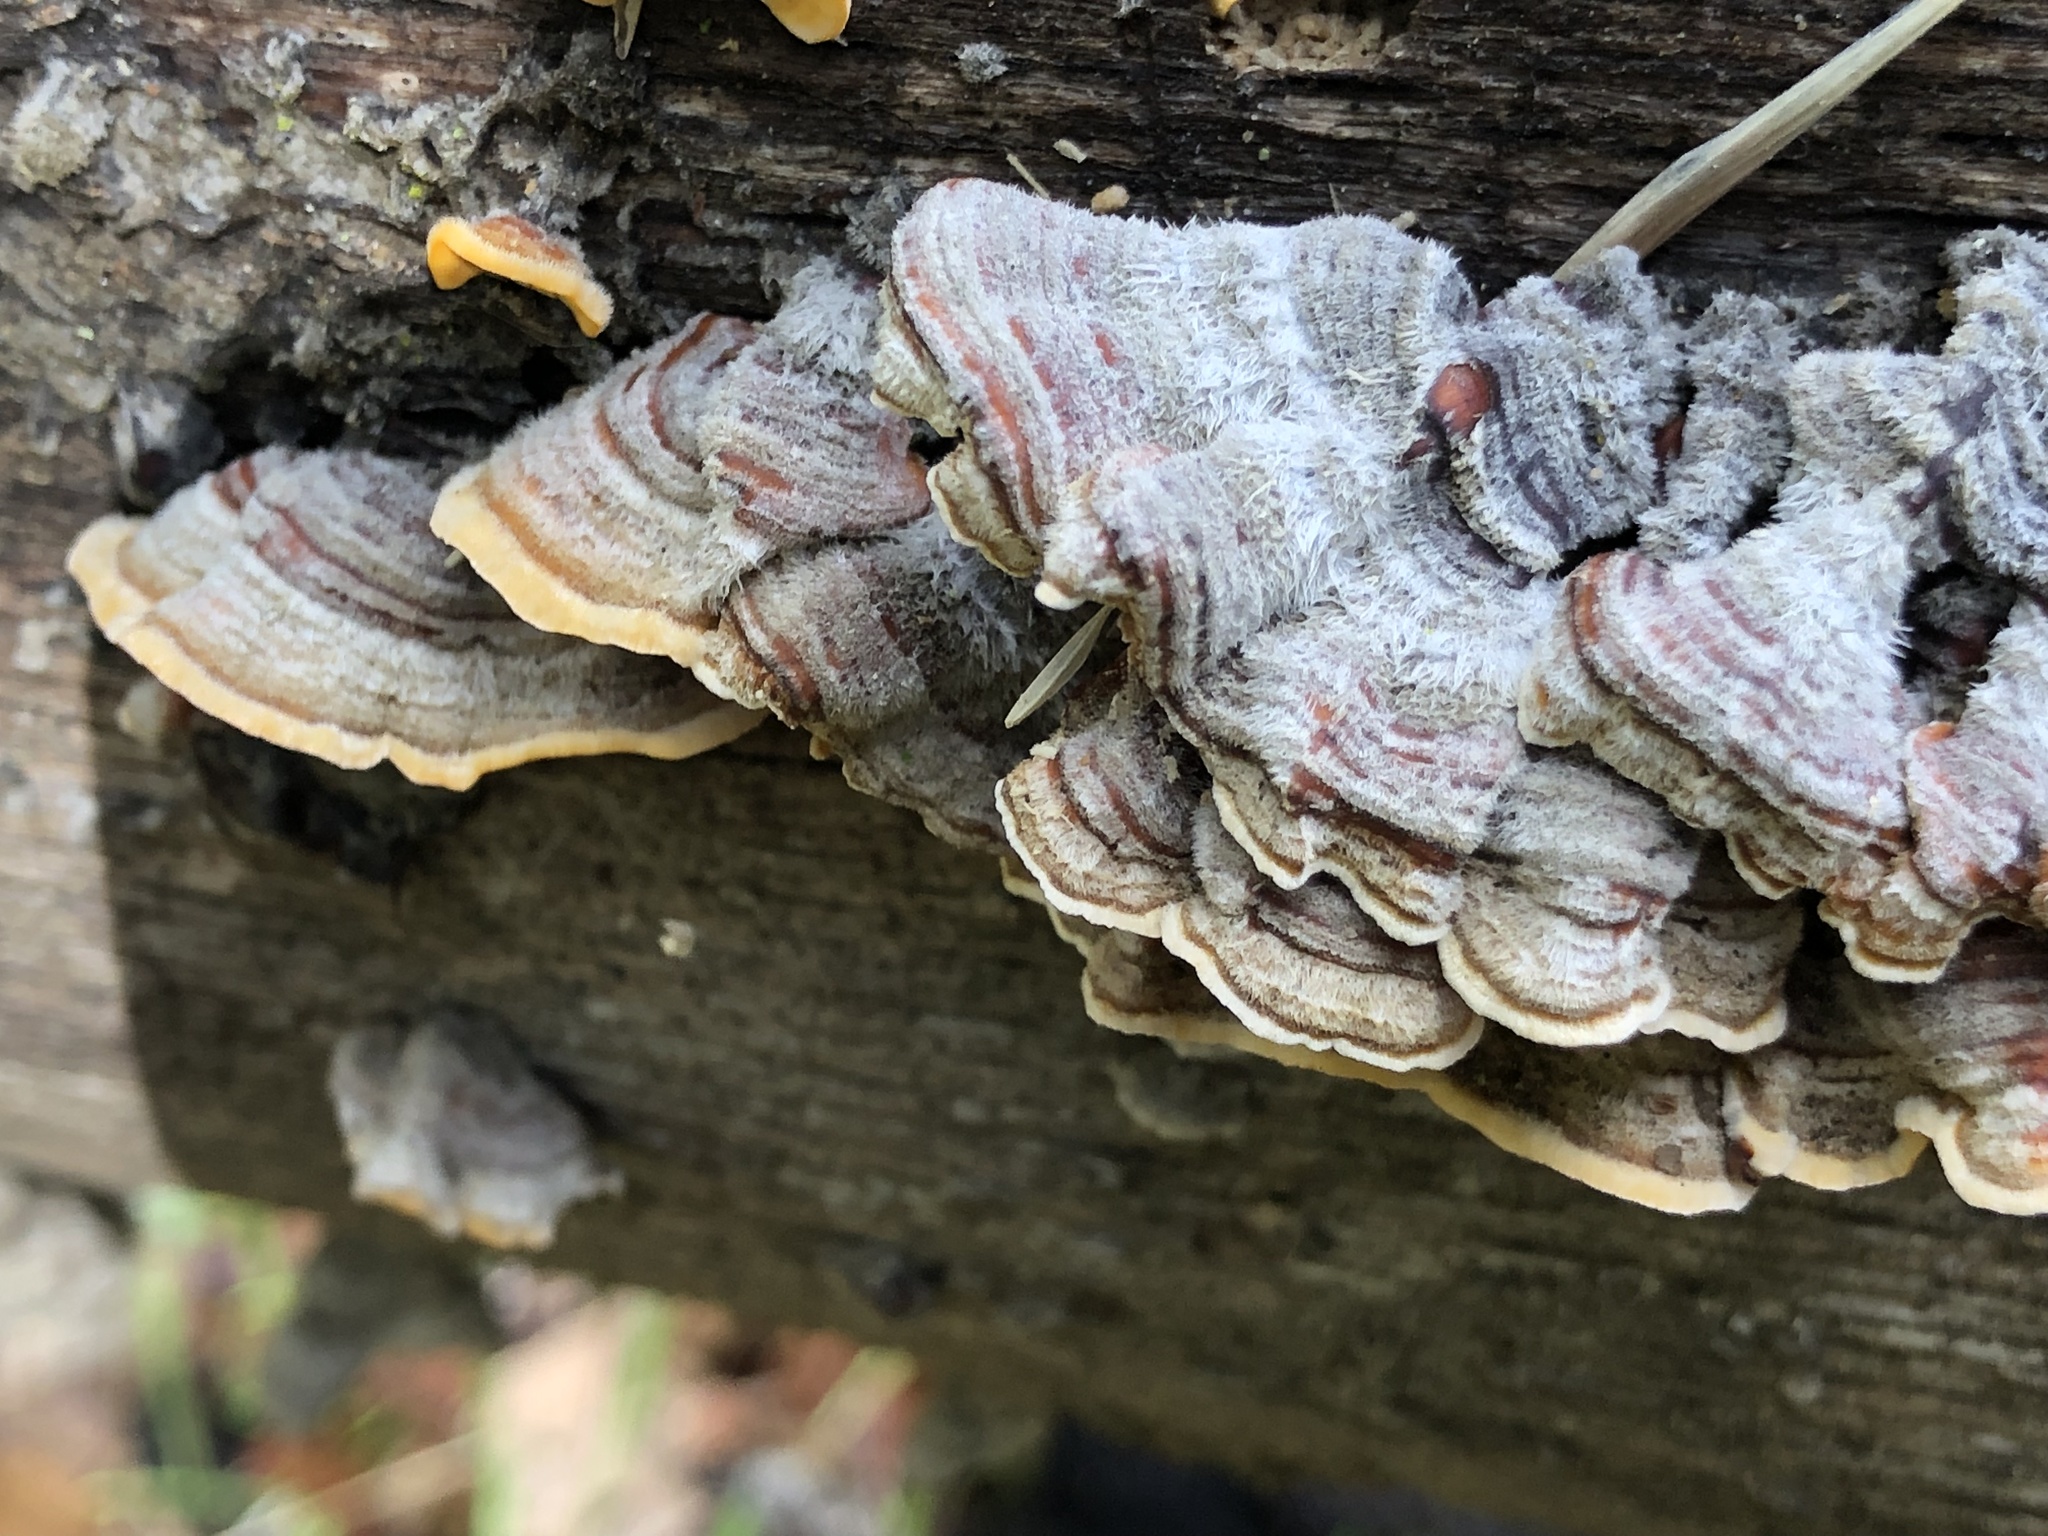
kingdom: Fungi
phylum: Basidiomycota
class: Agaricomycetes
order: Russulales
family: Stereaceae
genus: Stereum
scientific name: Stereum hirsutum
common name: Hairy curtain crust
